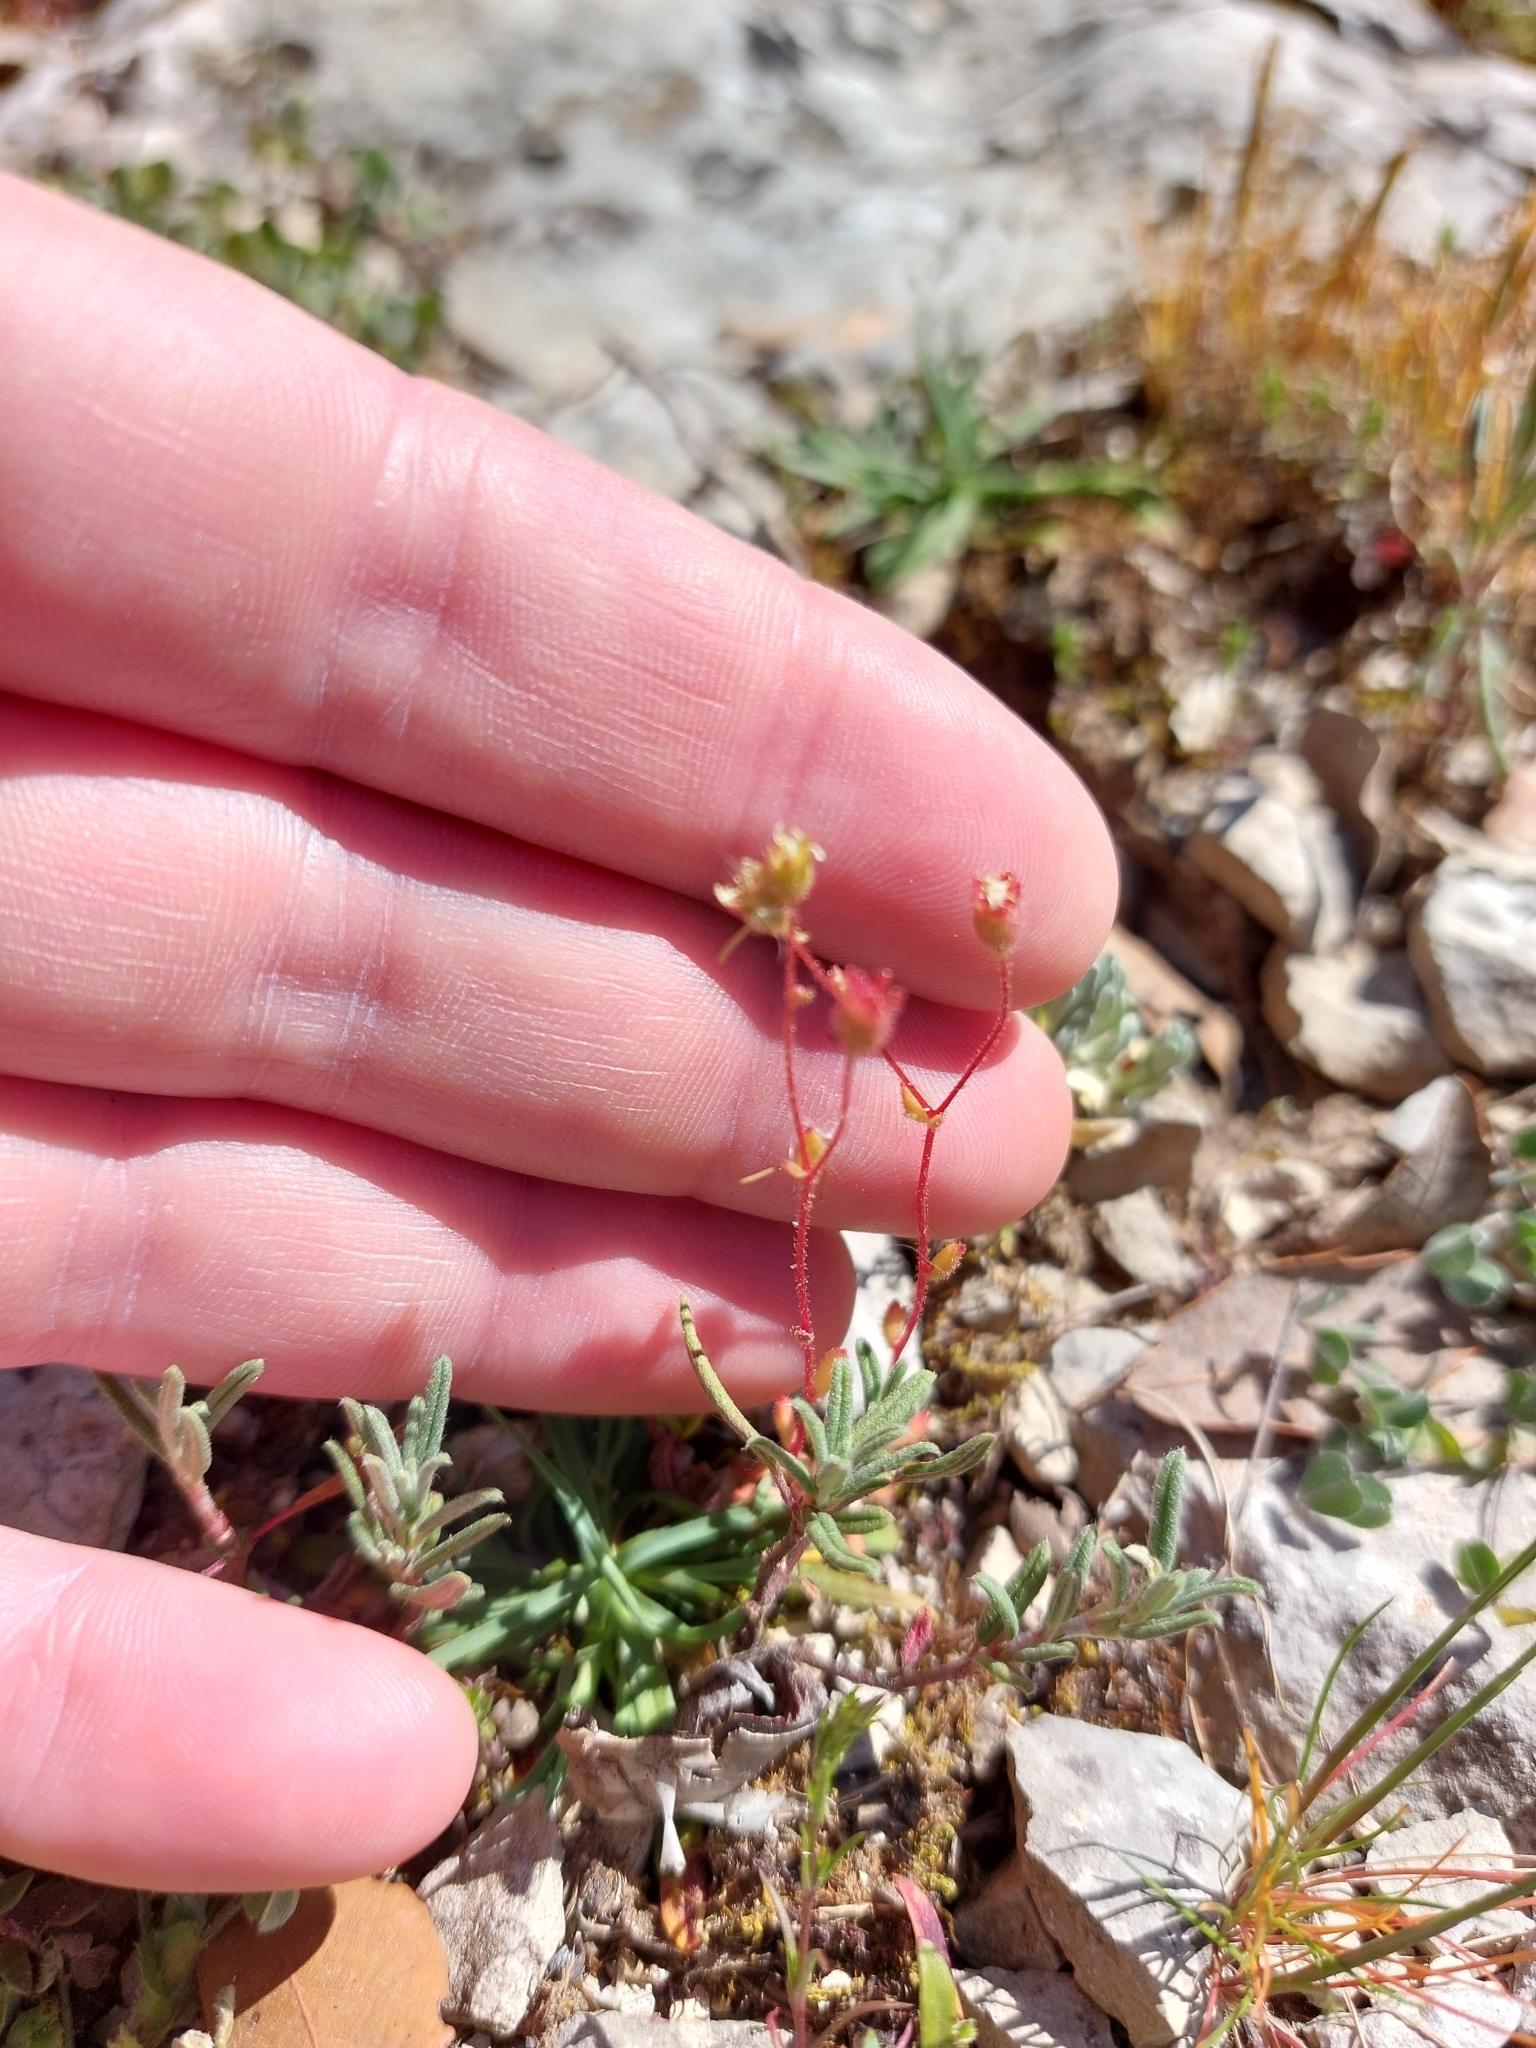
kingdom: Plantae
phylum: Tracheophyta
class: Magnoliopsida
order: Saxifragales
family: Saxifragaceae
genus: Saxifraga
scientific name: Saxifraga tridactylites
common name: Rue-leaved saxifrage
